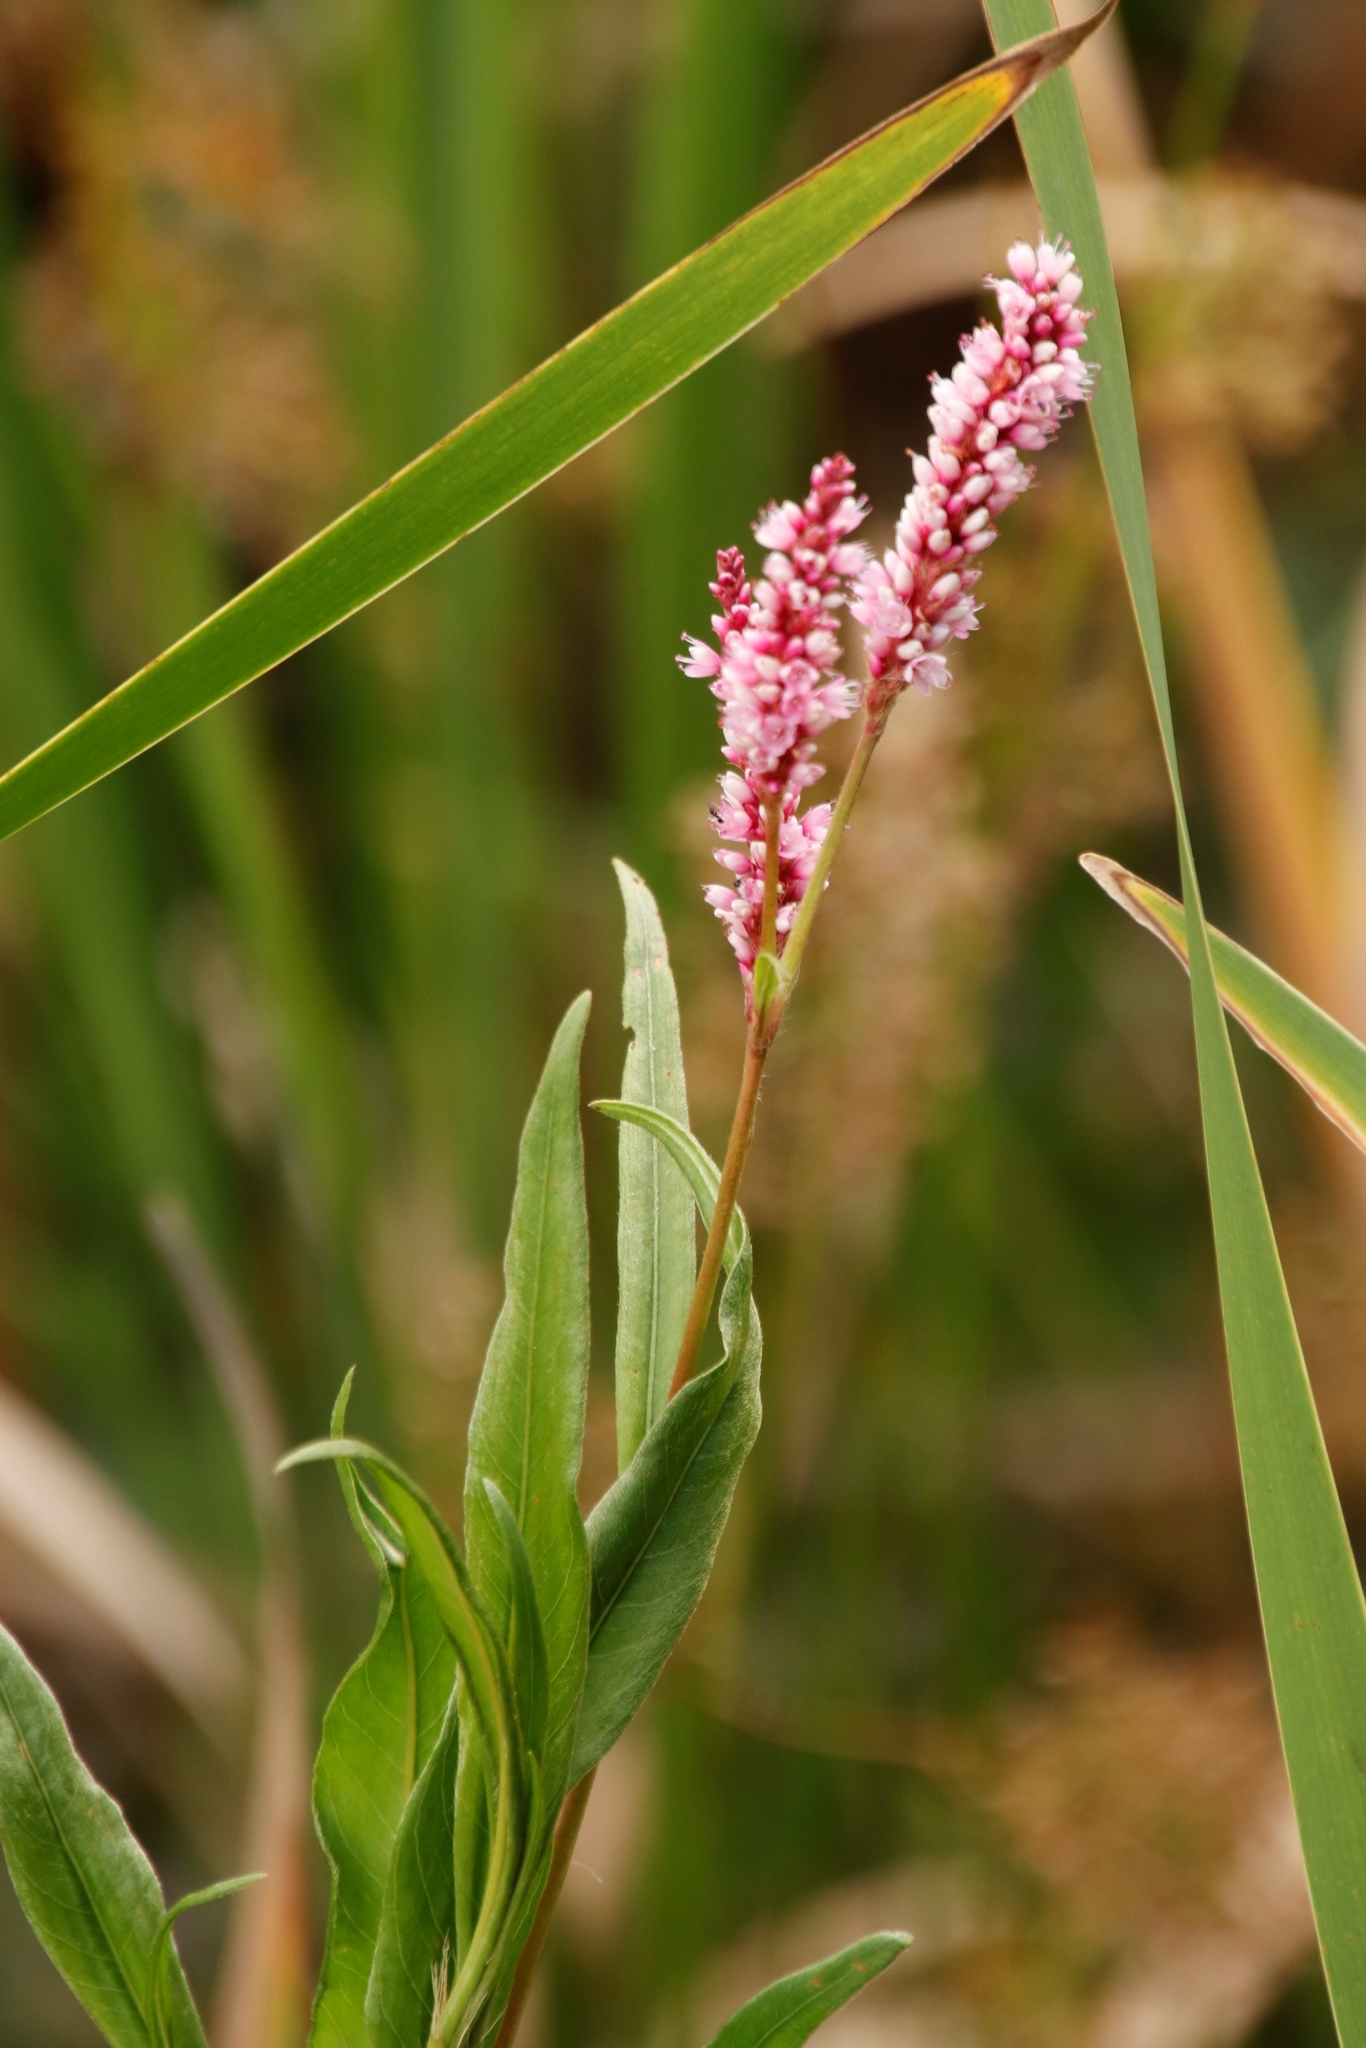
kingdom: Plantae
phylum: Tracheophyta
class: Magnoliopsida
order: Caryophyllales
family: Polygonaceae
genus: Persicaria
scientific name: Persicaria madagascariensis
